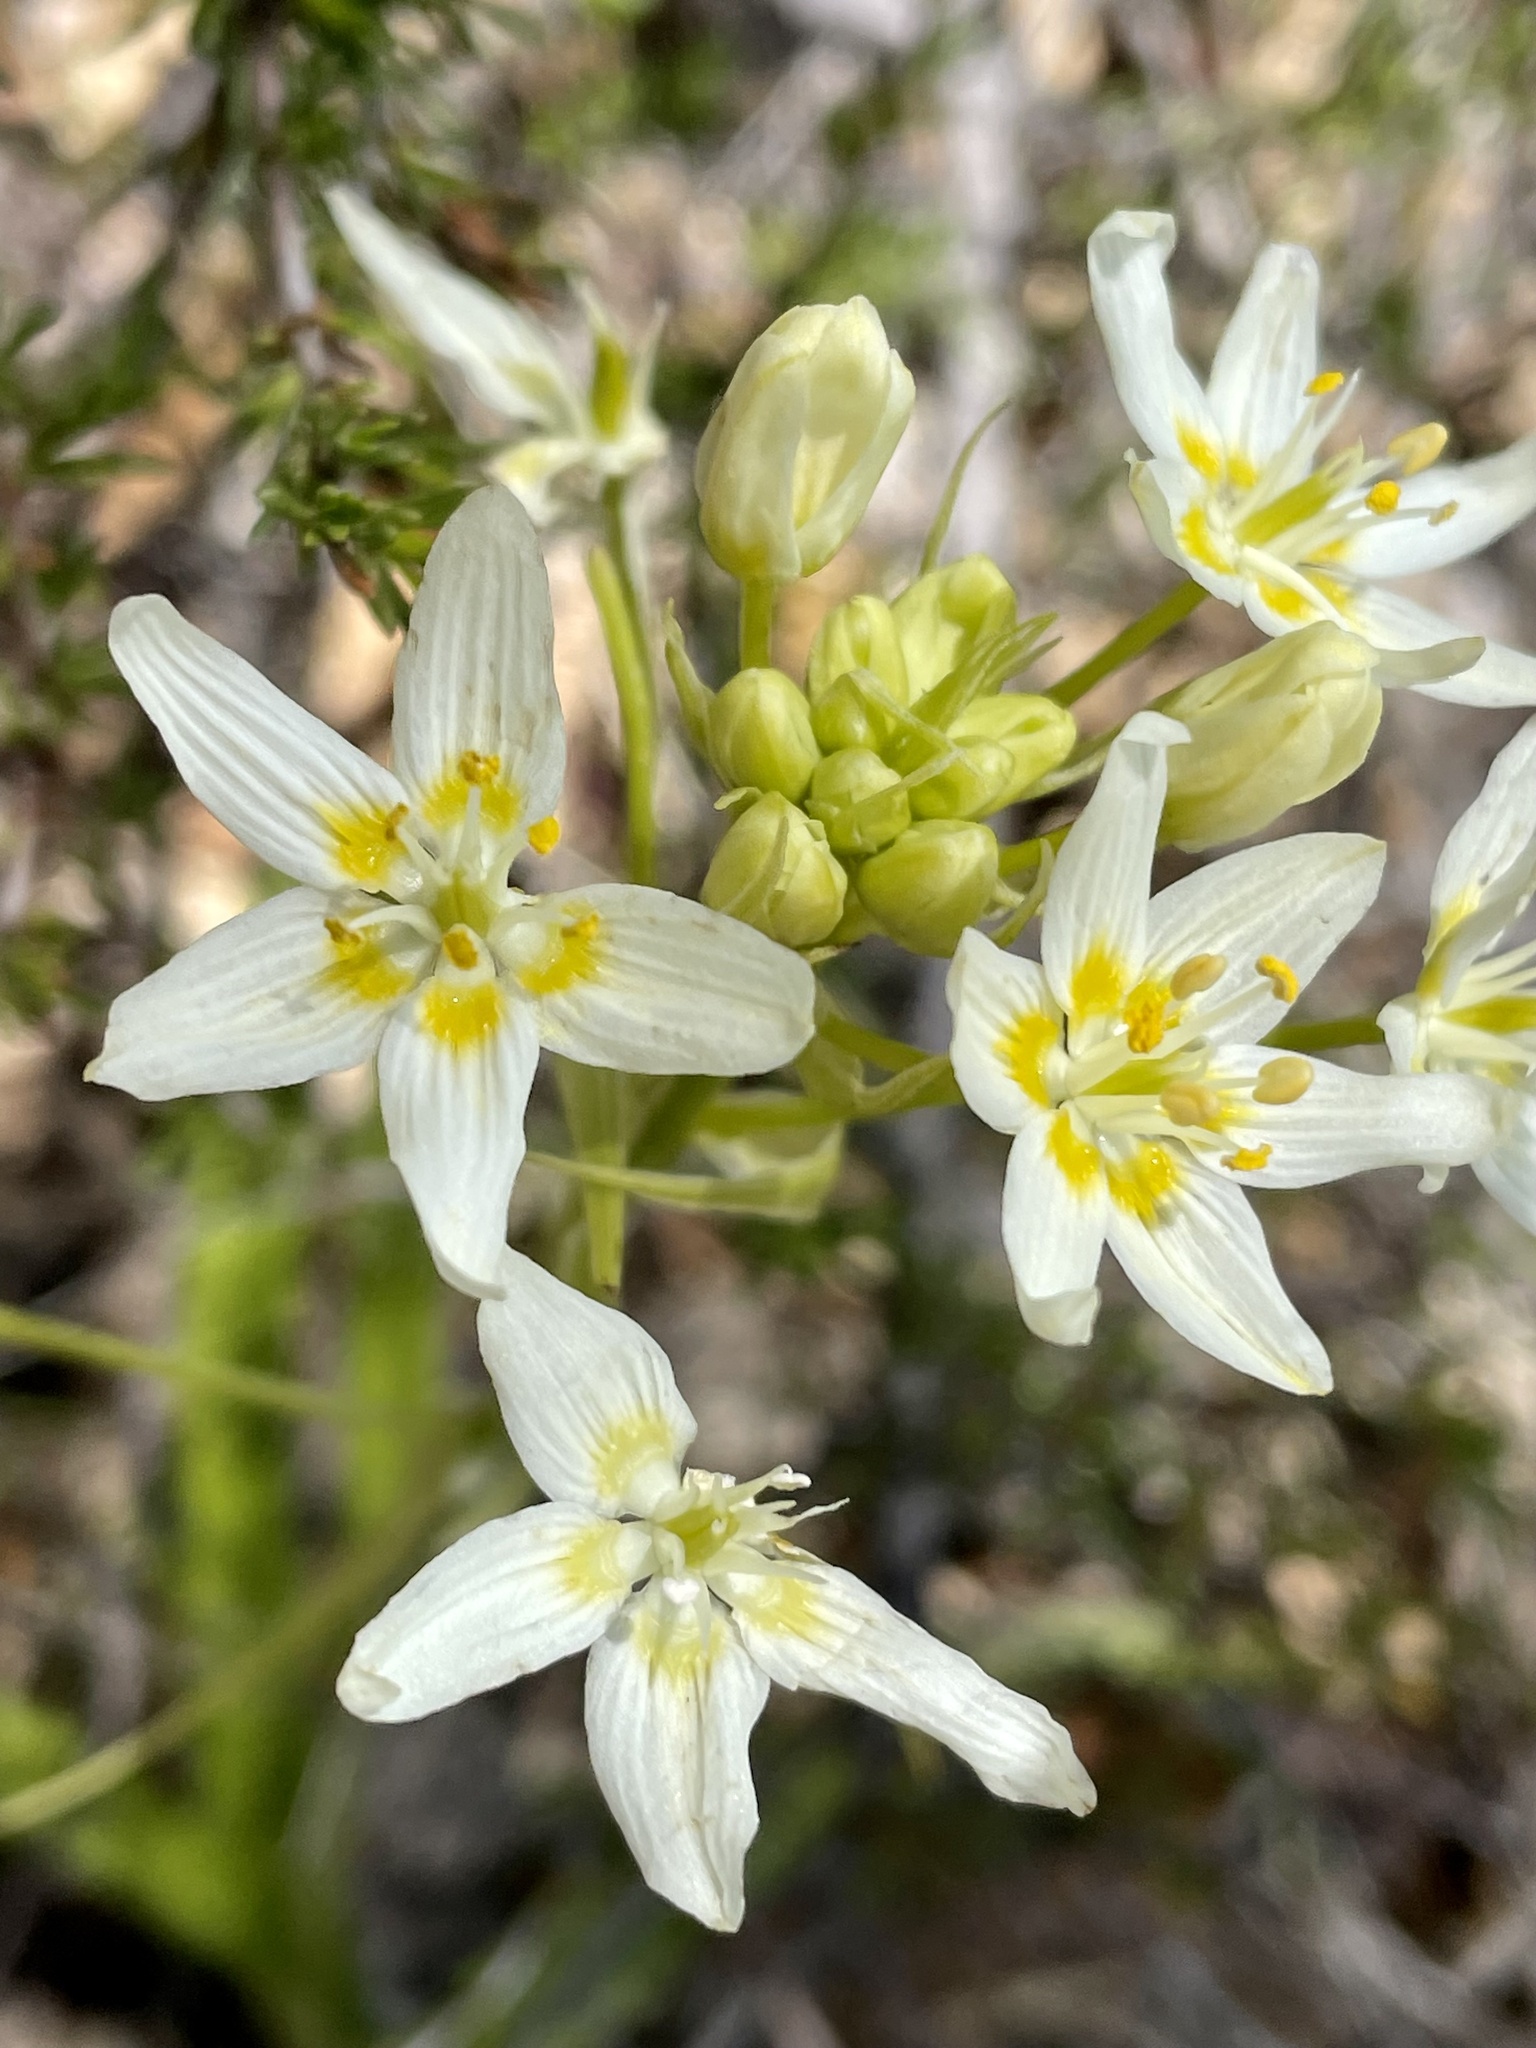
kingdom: Plantae
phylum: Tracheophyta
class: Liliopsida
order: Liliales
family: Melanthiaceae
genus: Toxicoscordion
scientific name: Toxicoscordion fremontii
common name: Fremont's death camas
